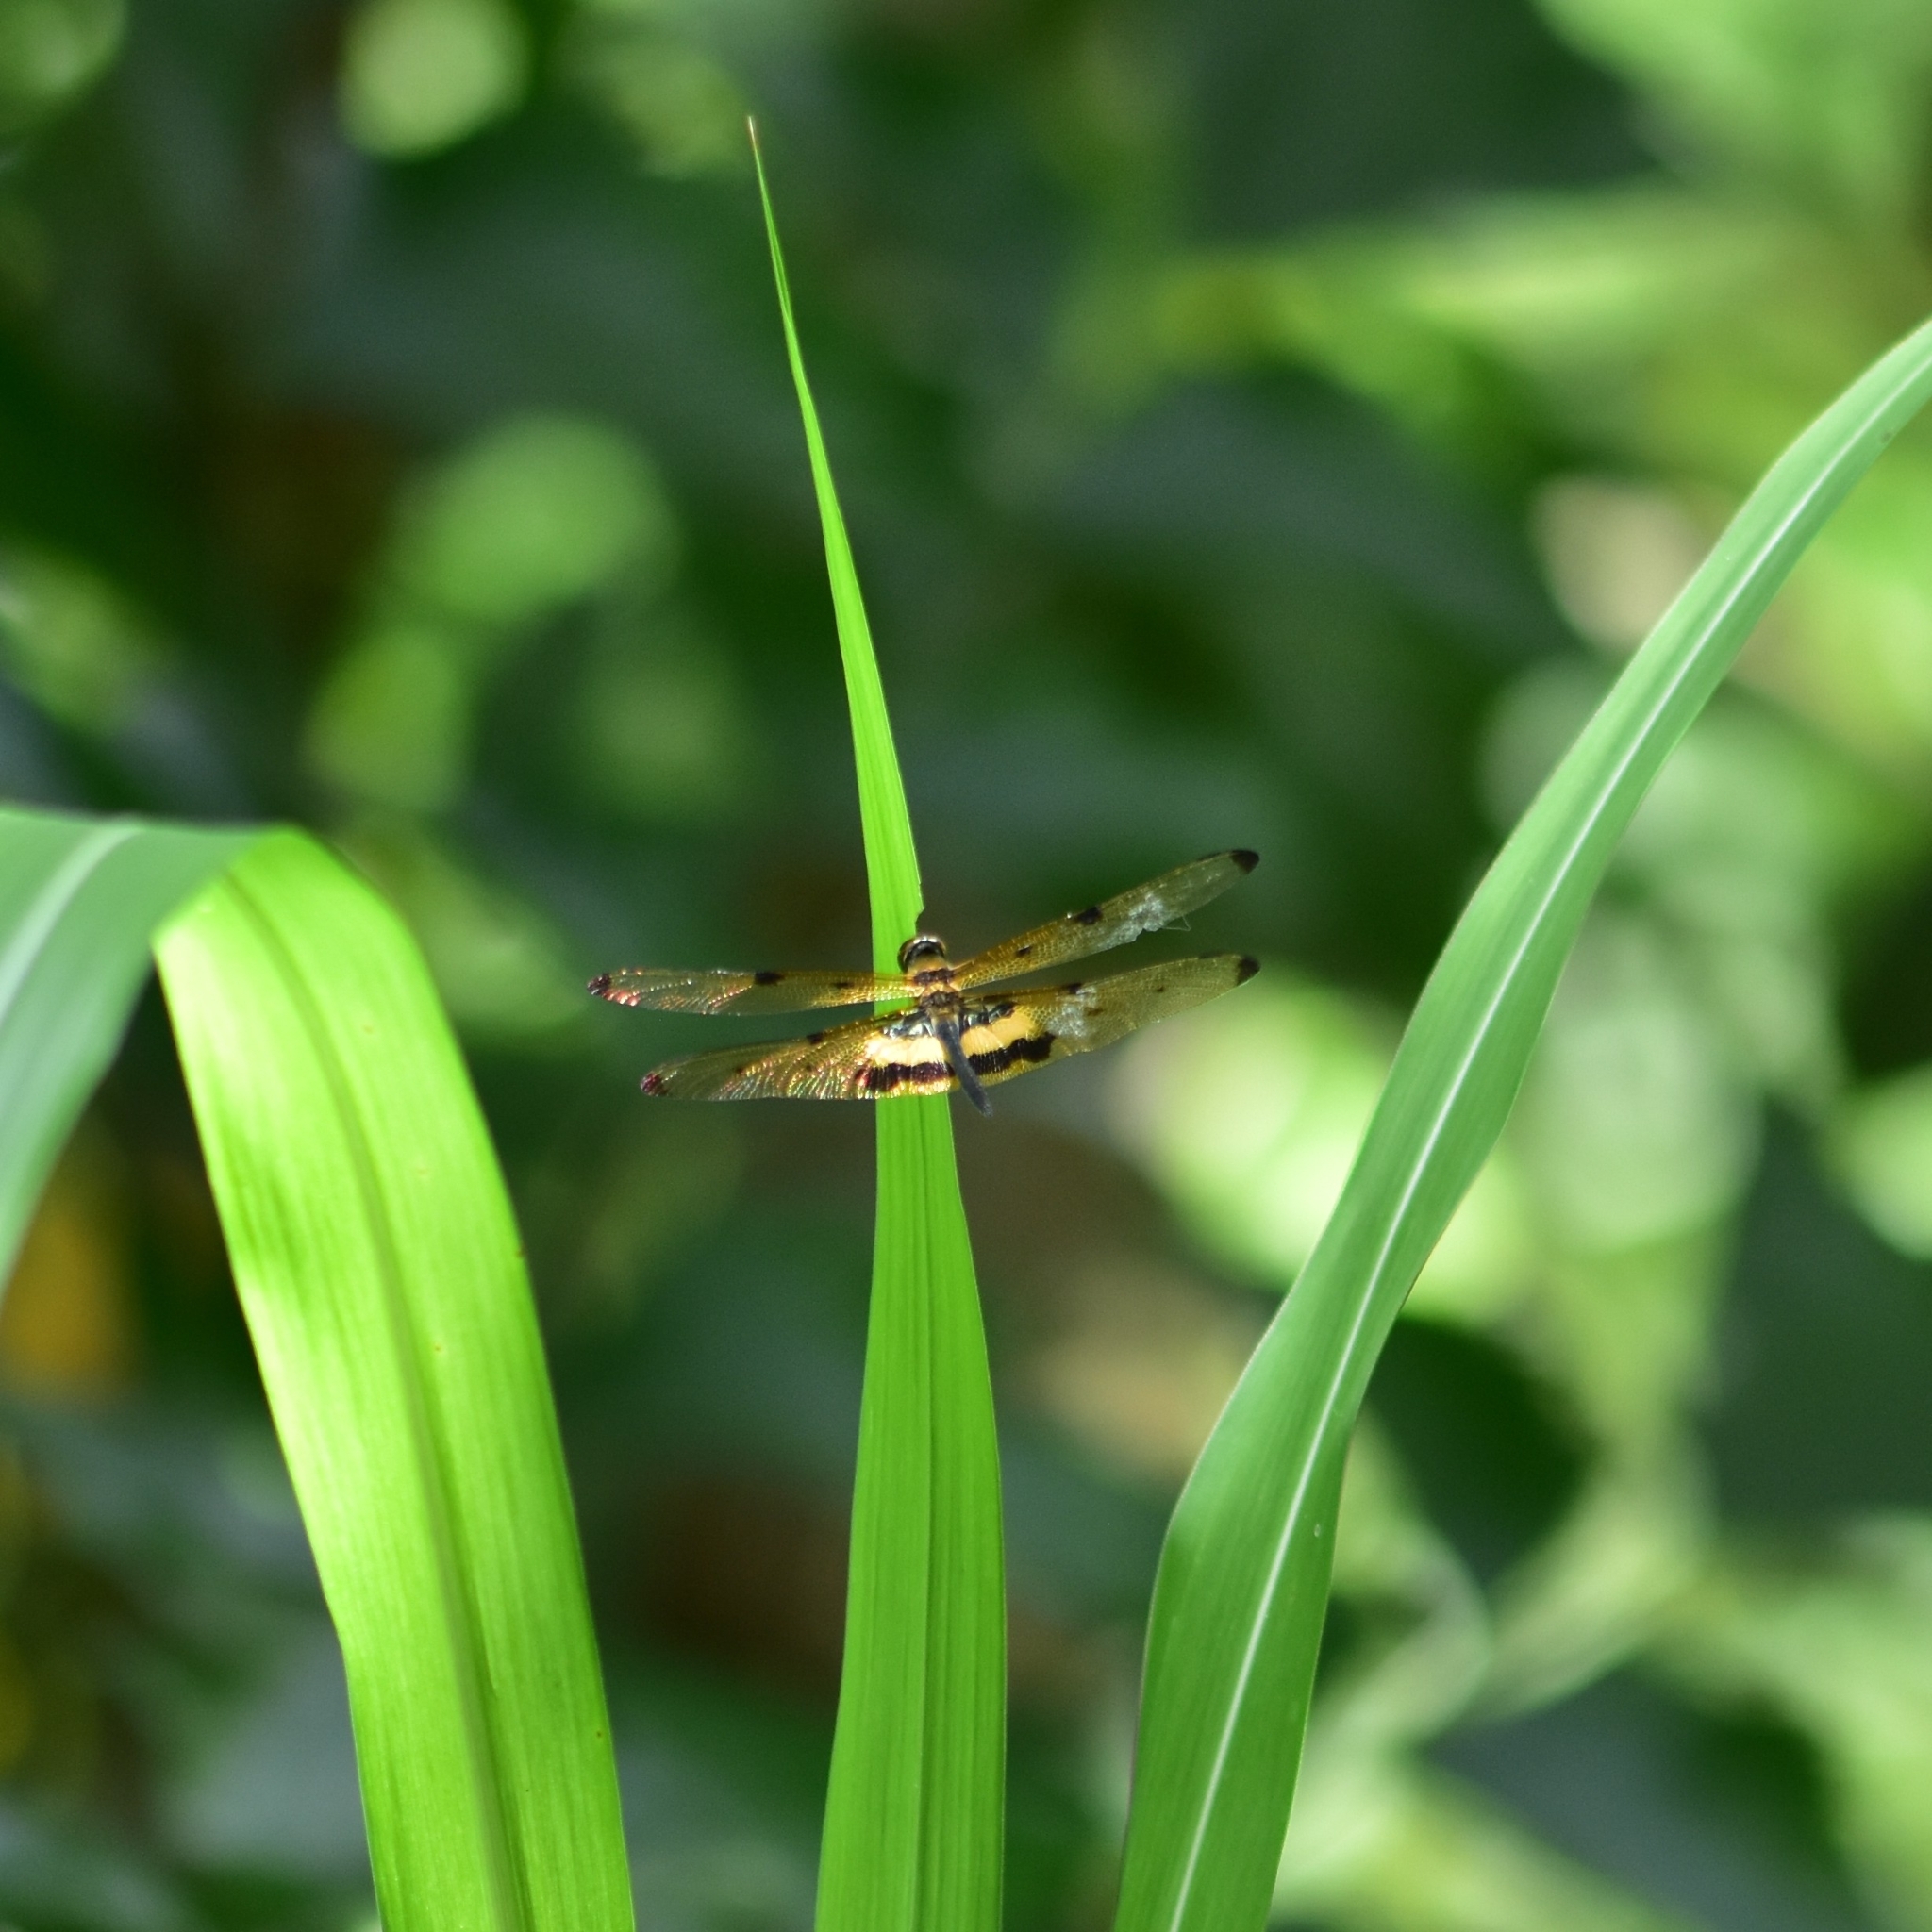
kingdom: Animalia
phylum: Arthropoda
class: Insecta
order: Odonata
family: Libellulidae
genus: Rhyothemis
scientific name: Rhyothemis variegata
